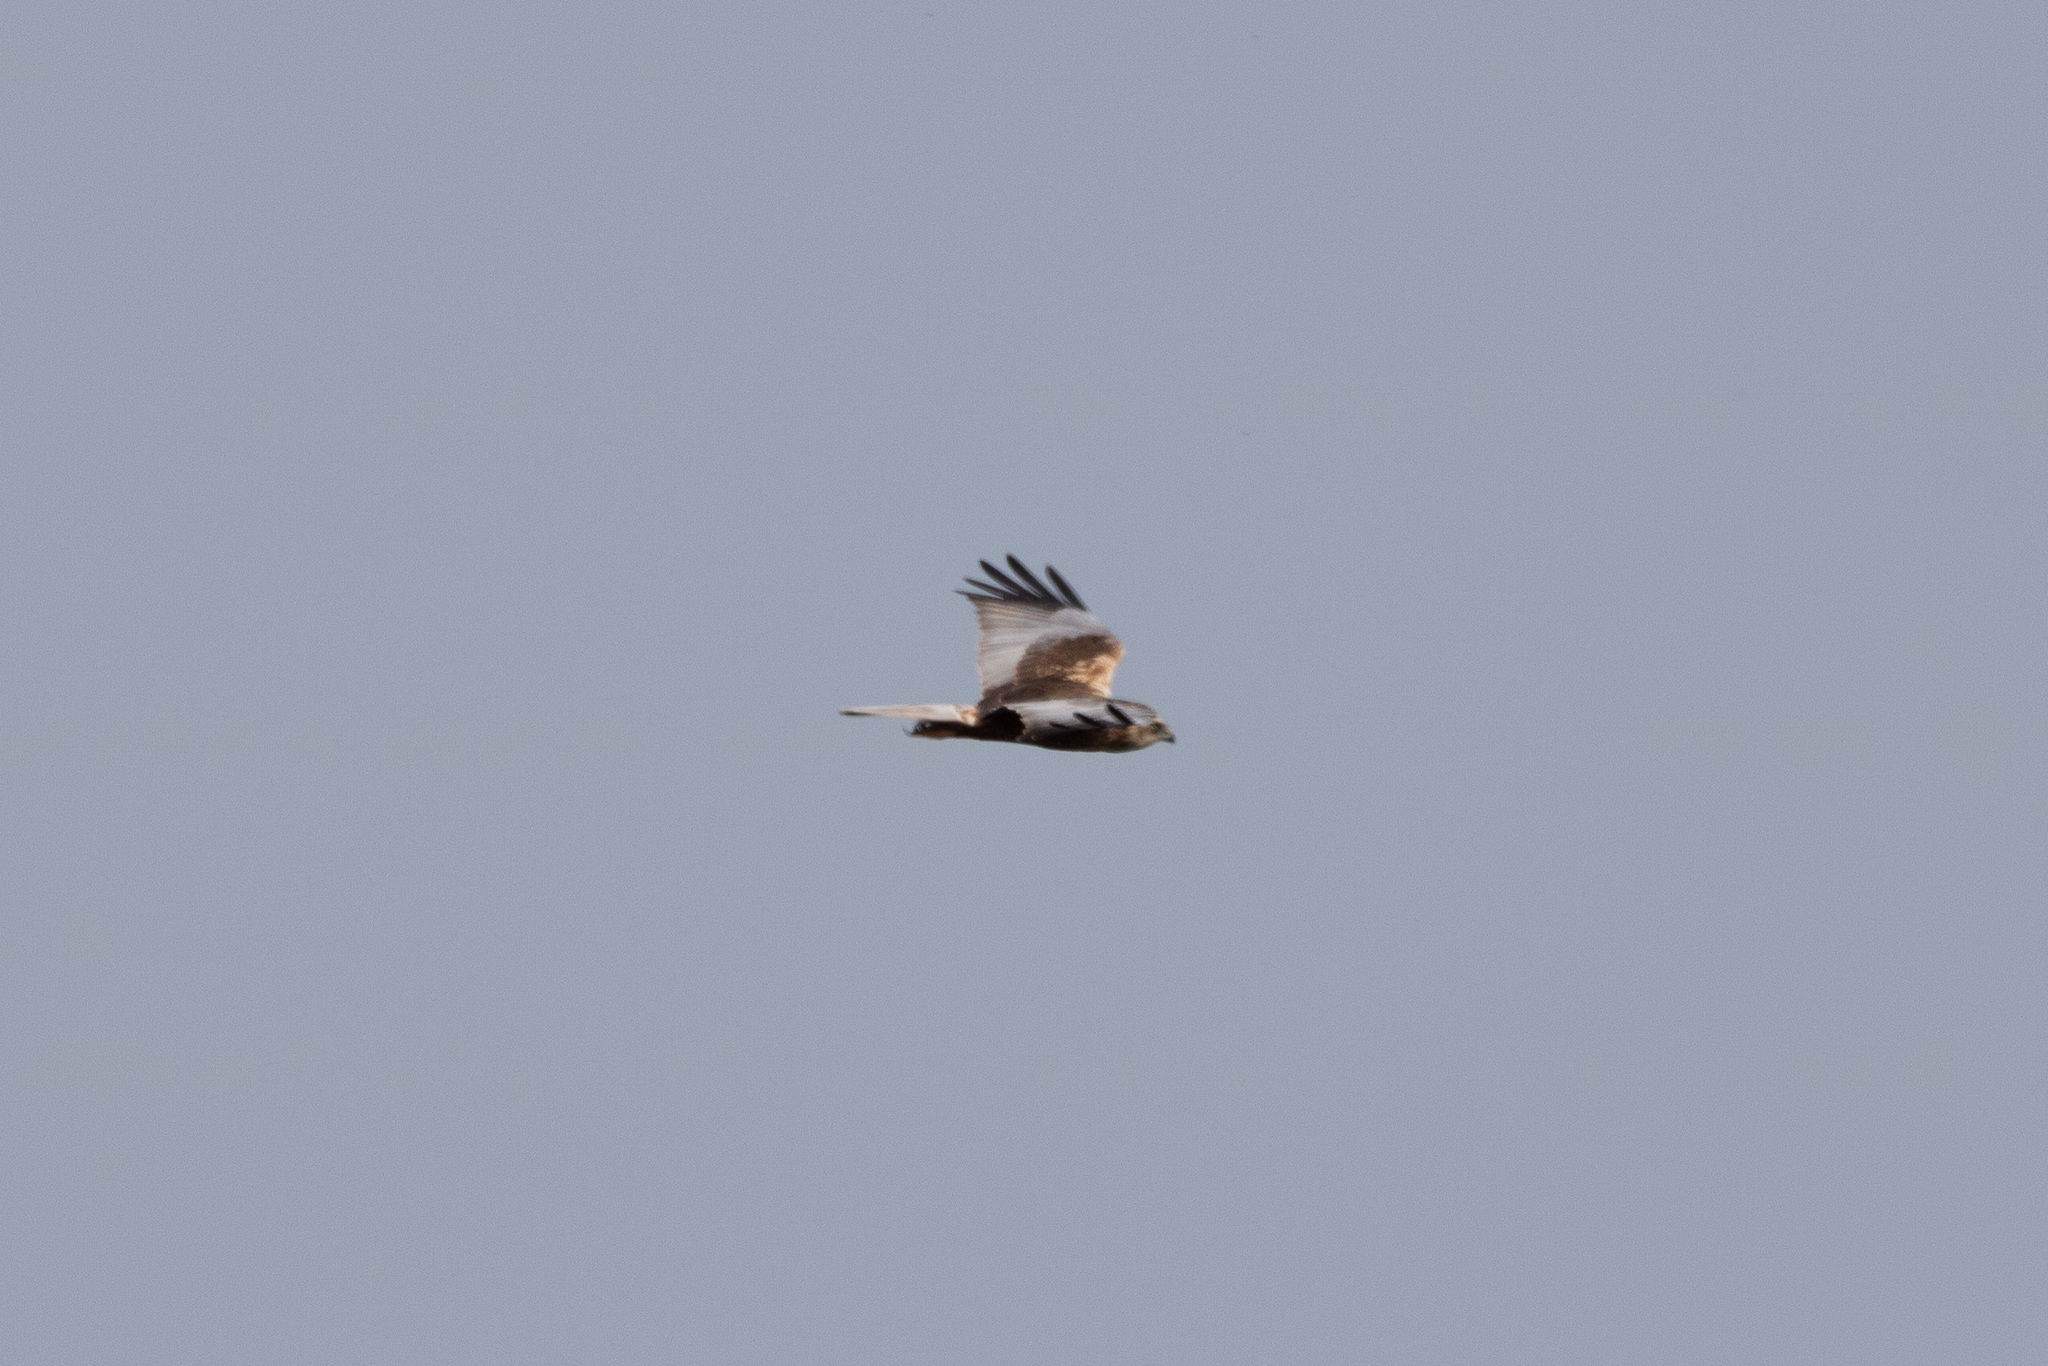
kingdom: Animalia
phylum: Chordata
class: Aves
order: Accipitriformes
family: Accipitridae
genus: Circus
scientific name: Circus aeruginosus
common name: Western marsh harrier
